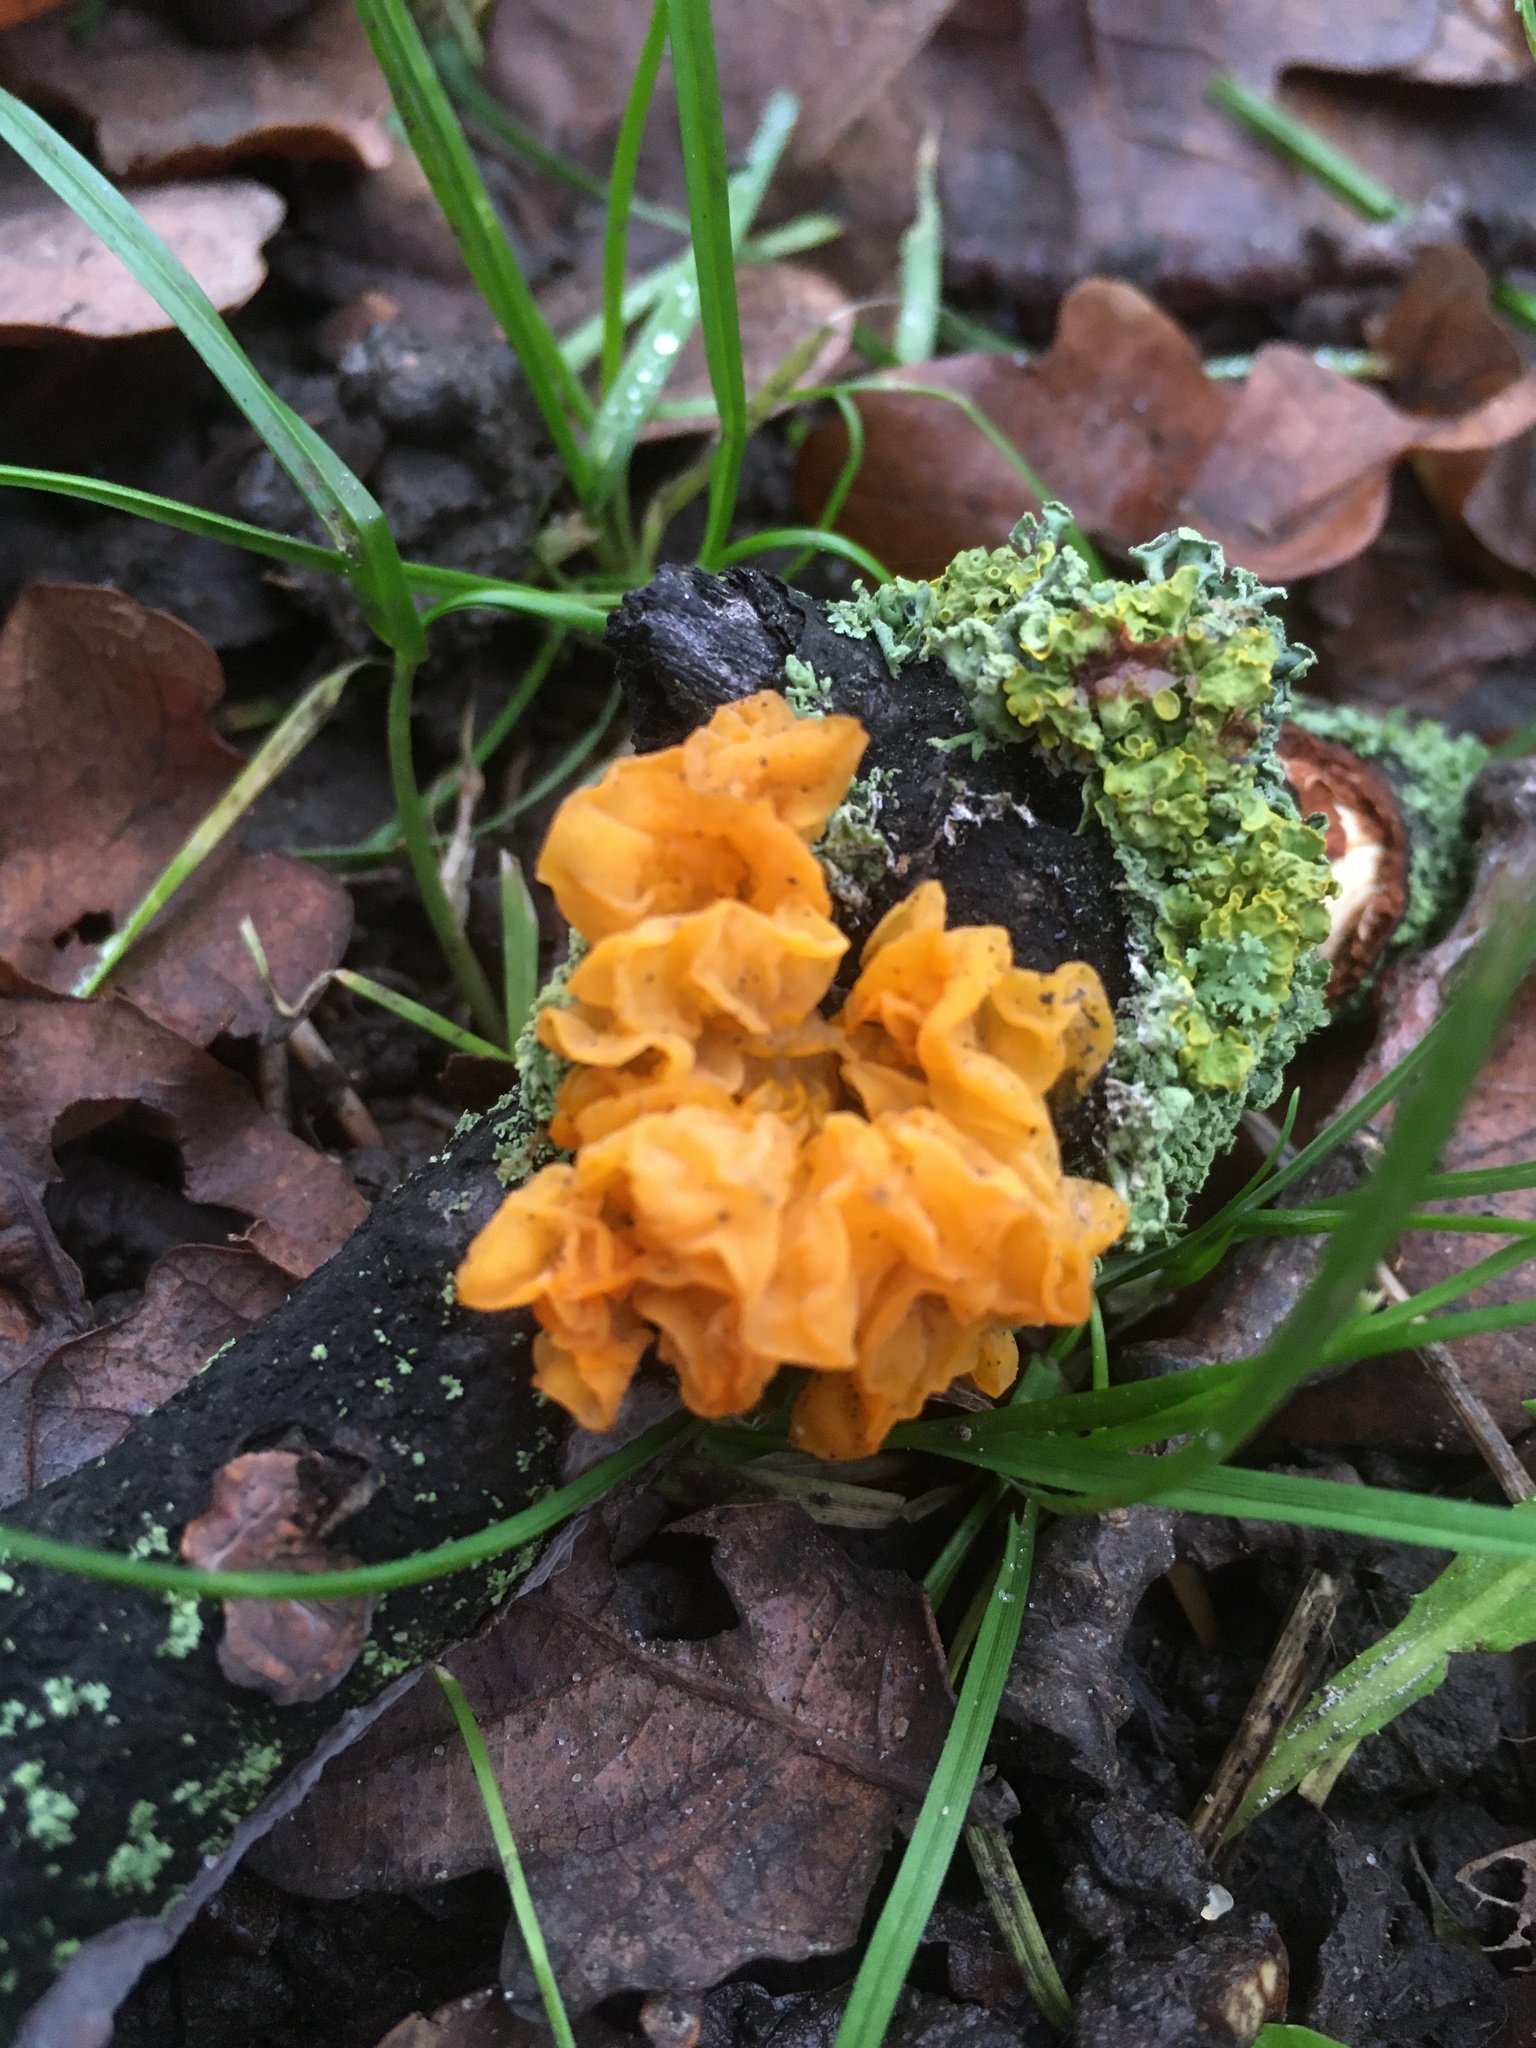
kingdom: Fungi
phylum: Basidiomycota
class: Tremellomycetes
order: Tremellales
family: Tremellaceae
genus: Tremella
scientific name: Tremella mesenterica
